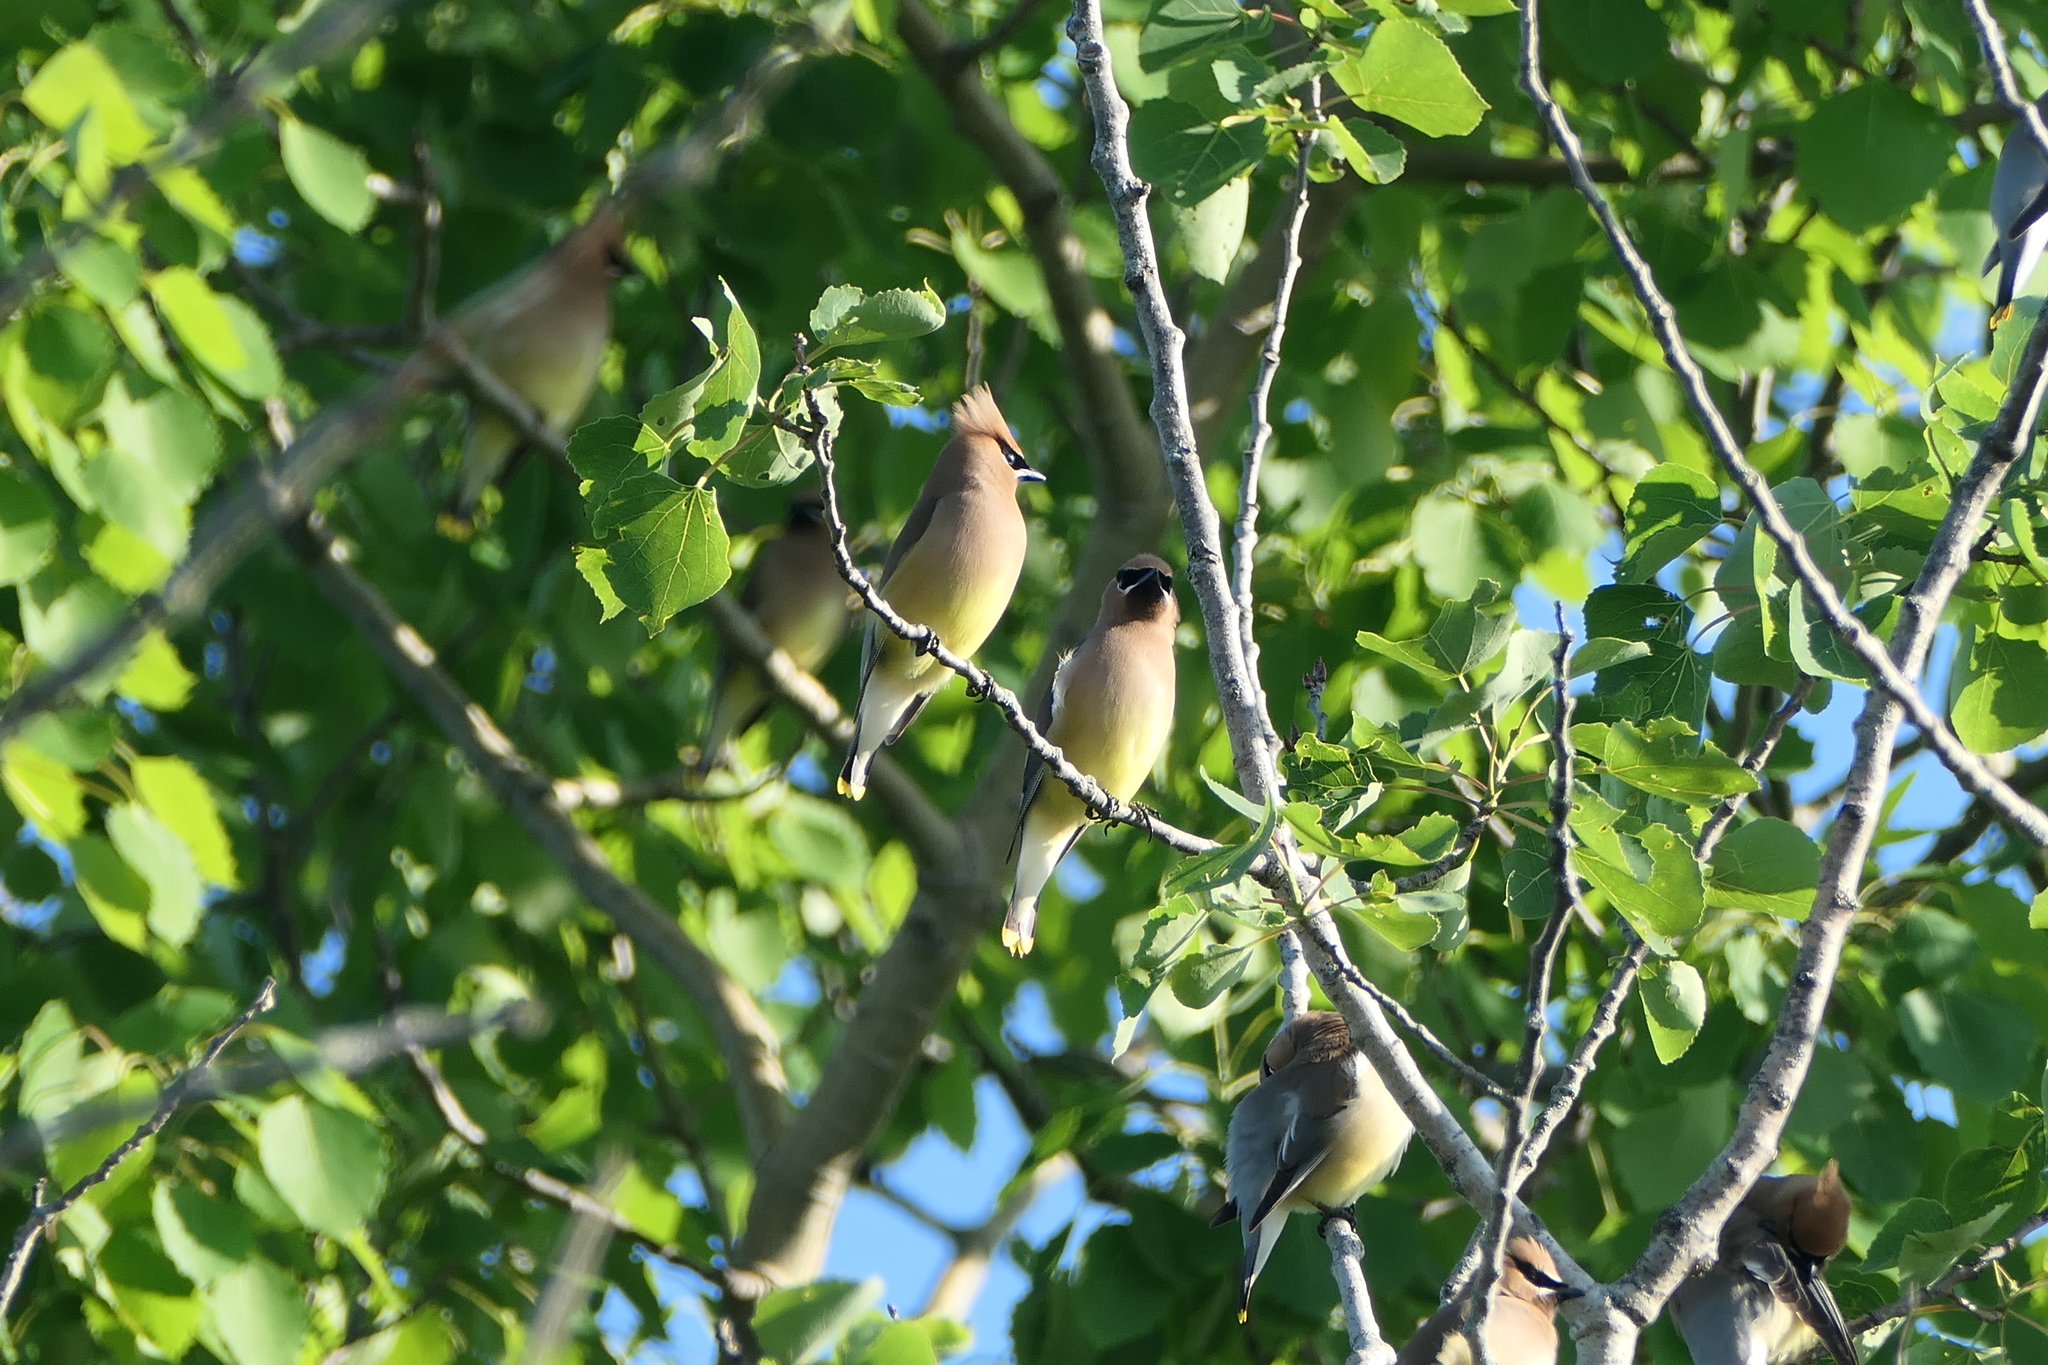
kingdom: Animalia
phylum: Chordata
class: Aves
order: Passeriformes
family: Bombycillidae
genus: Bombycilla
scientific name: Bombycilla cedrorum
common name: Cedar waxwing
